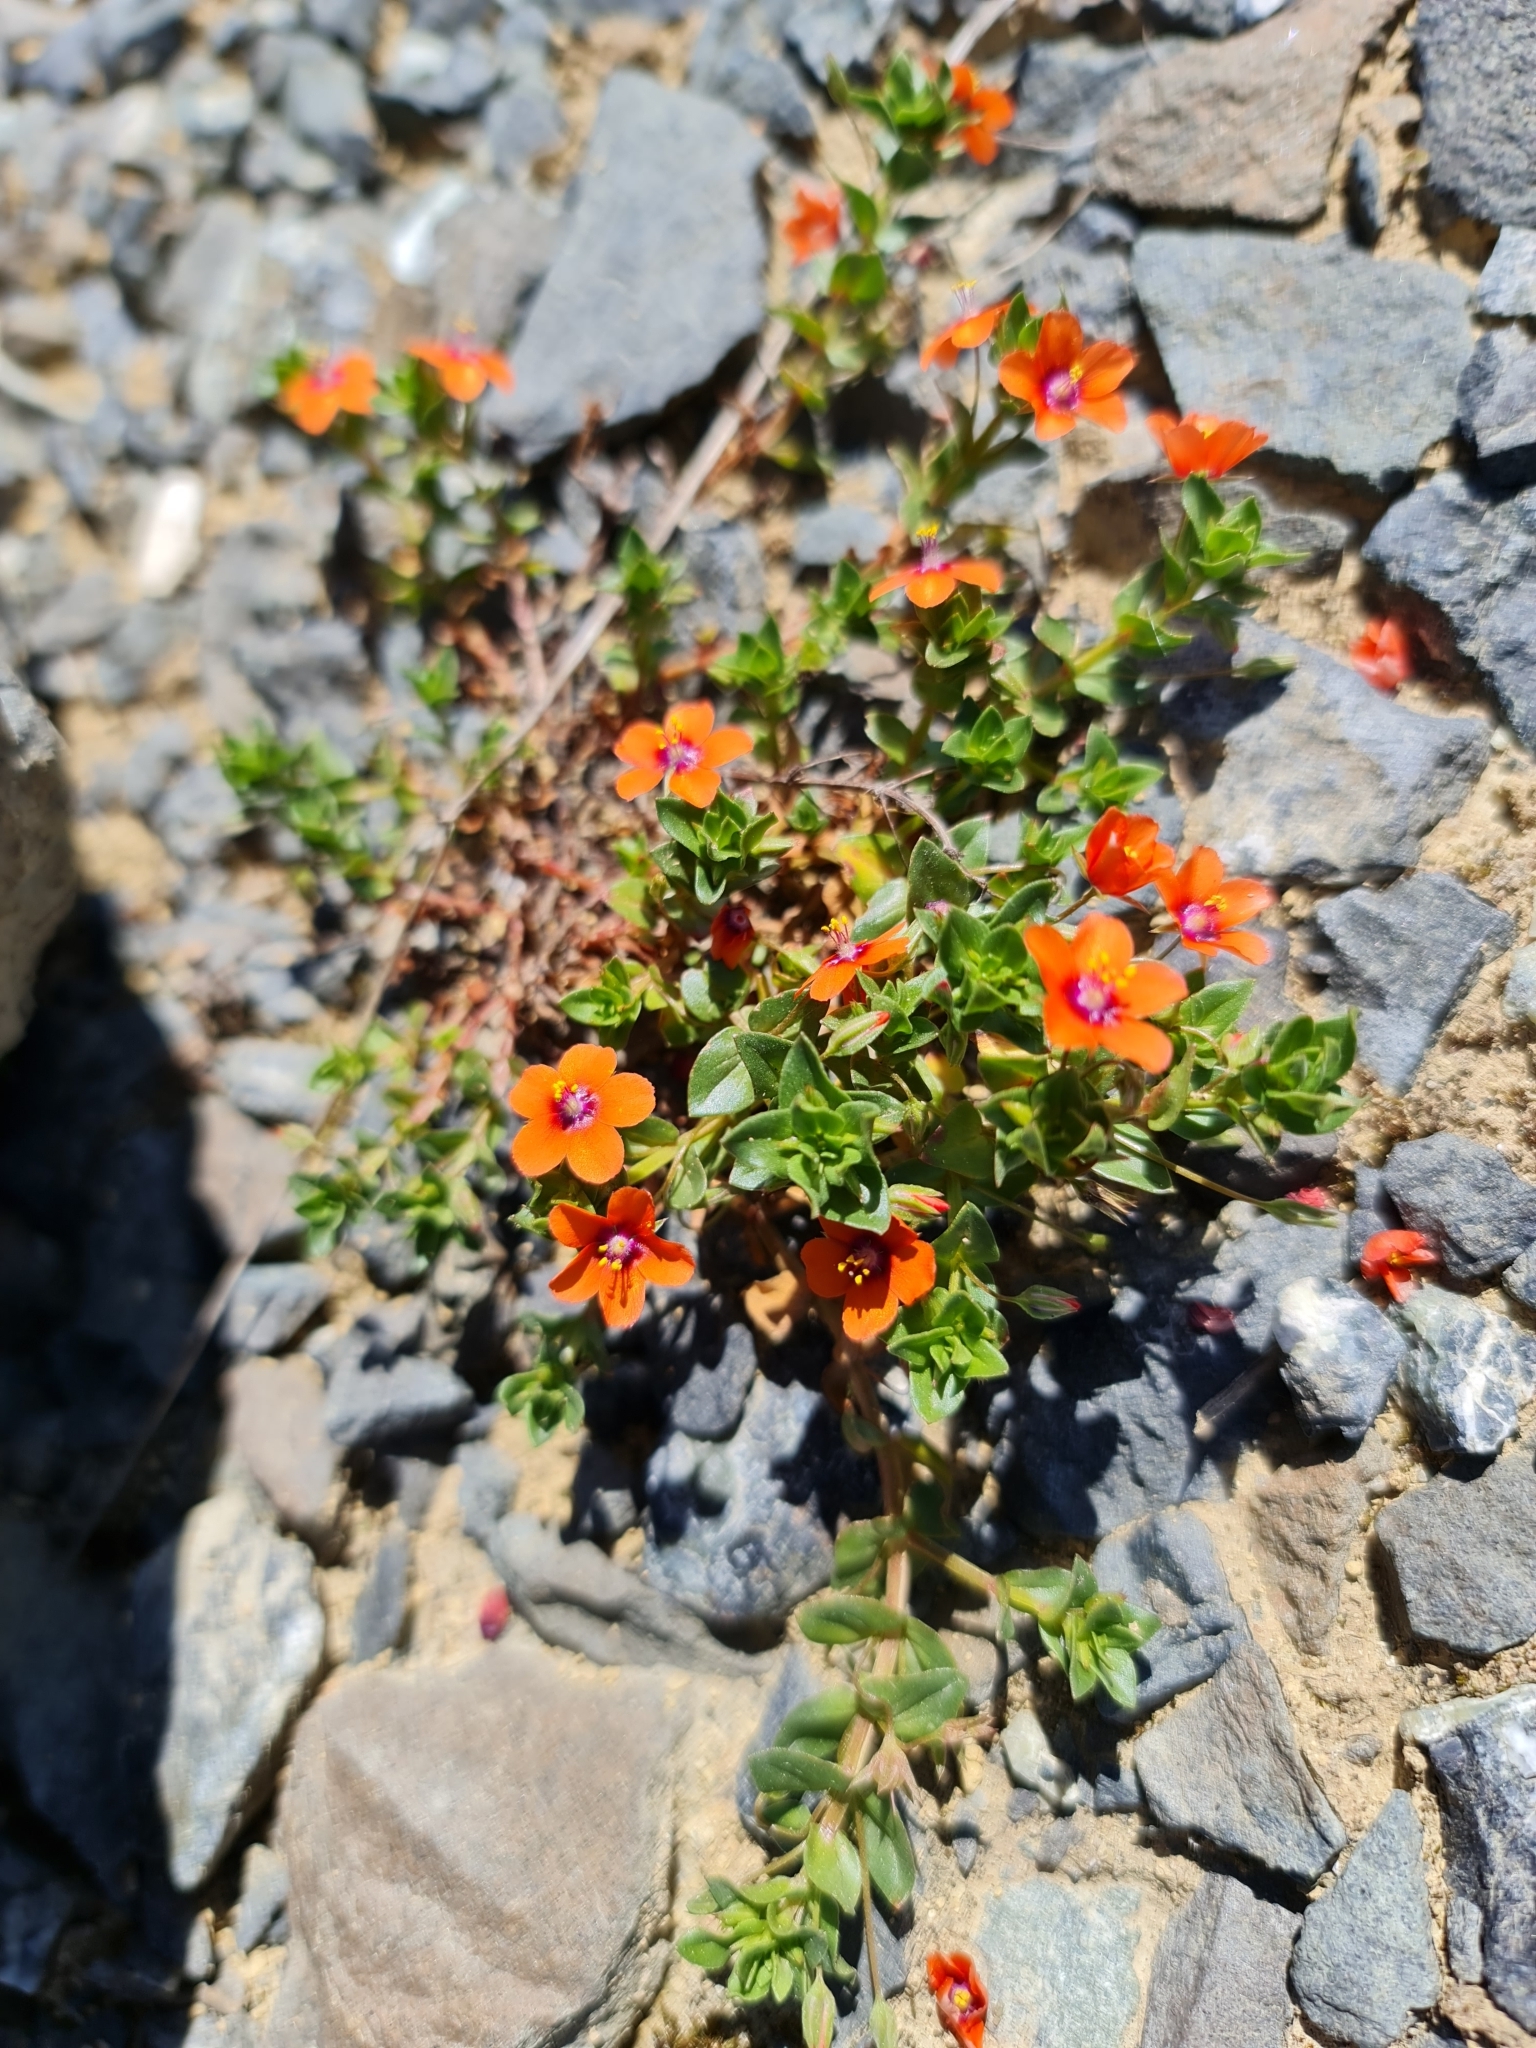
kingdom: Plantae
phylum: Tracheophyta
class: Magnoliopsida
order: Ericales
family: Primulaceae
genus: Lysimachia
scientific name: Lysimachia arvensis
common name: Scarlet pimpernel
